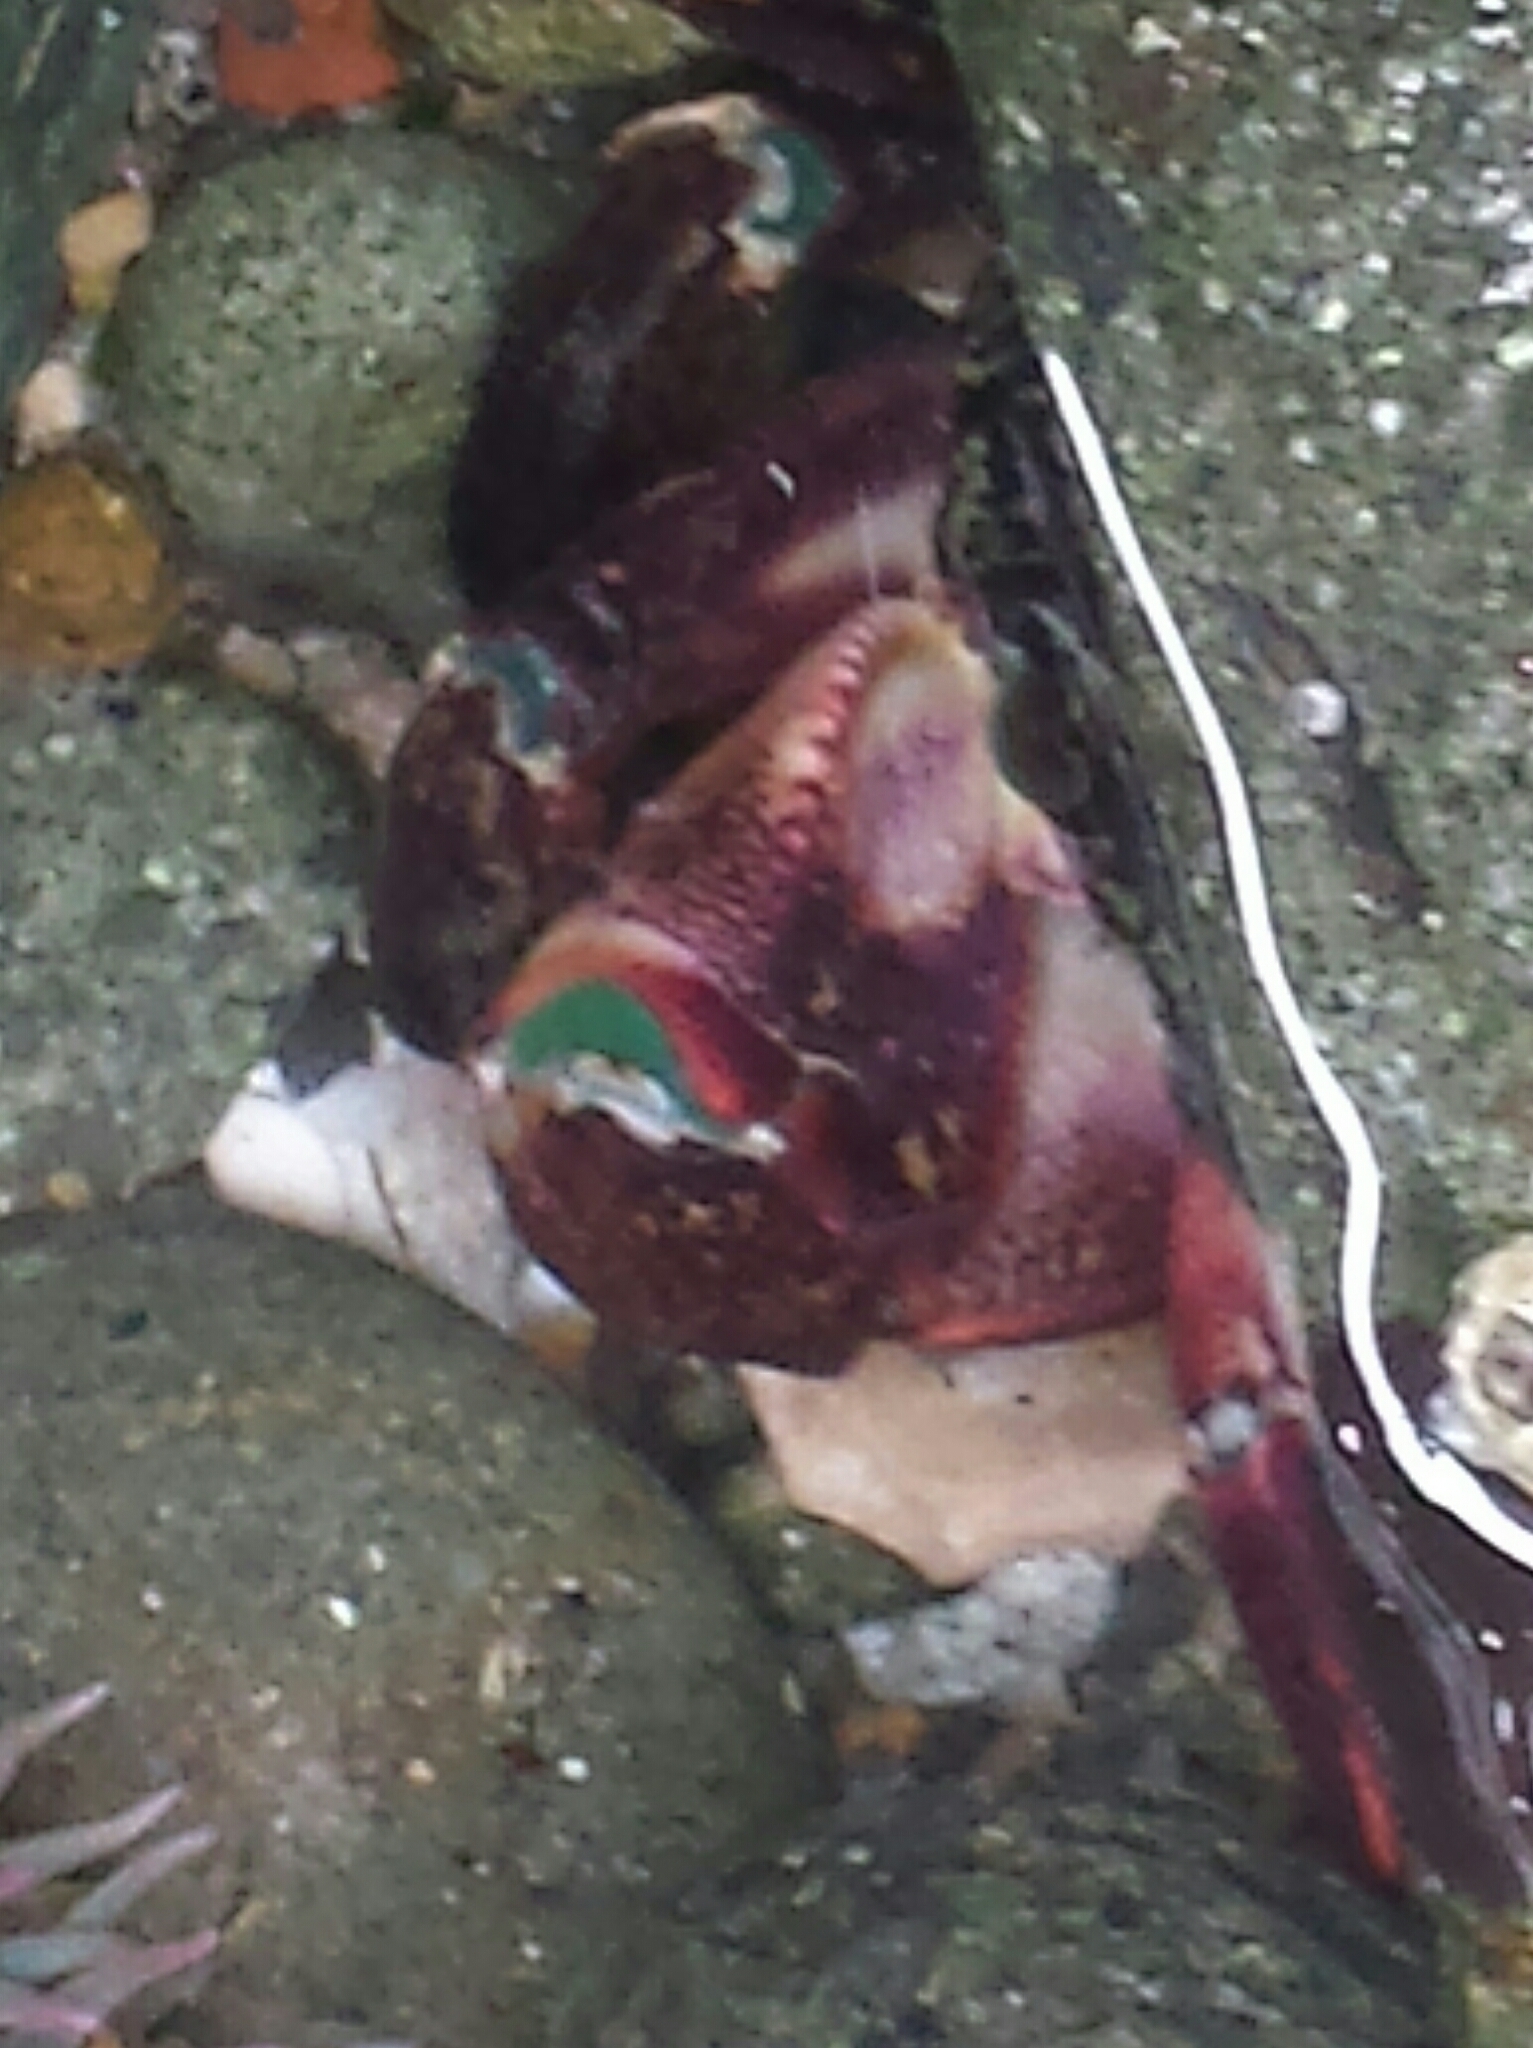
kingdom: Animalia
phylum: Arthropoda
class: Malacostraca
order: Decapoda
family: Grapsidae
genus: Pachygrapsus
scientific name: Pachygrapsus crassipes
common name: Striped shore crab
